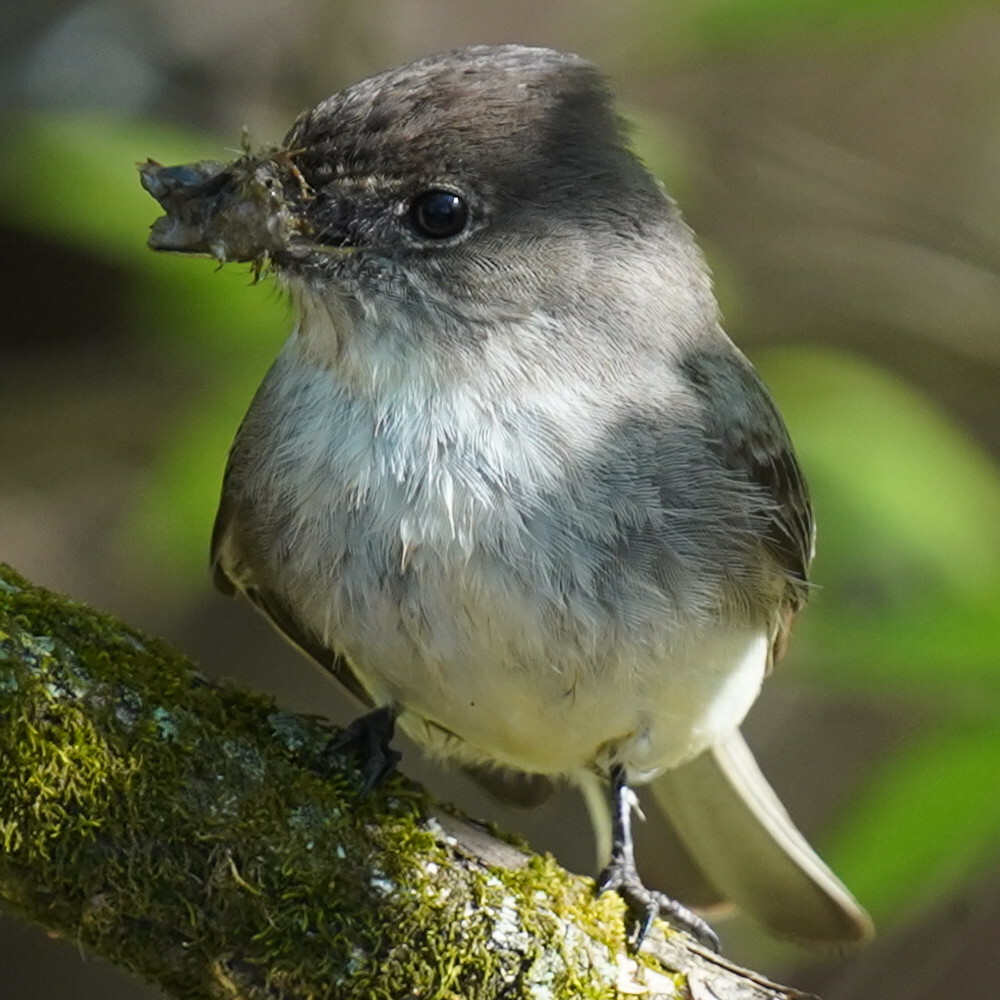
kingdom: Animalia
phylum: Chordata
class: Aves
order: Passeriformes
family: Tyrannidae
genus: Sayornis
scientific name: Sayornis phoebe
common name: Eastern phoebe
